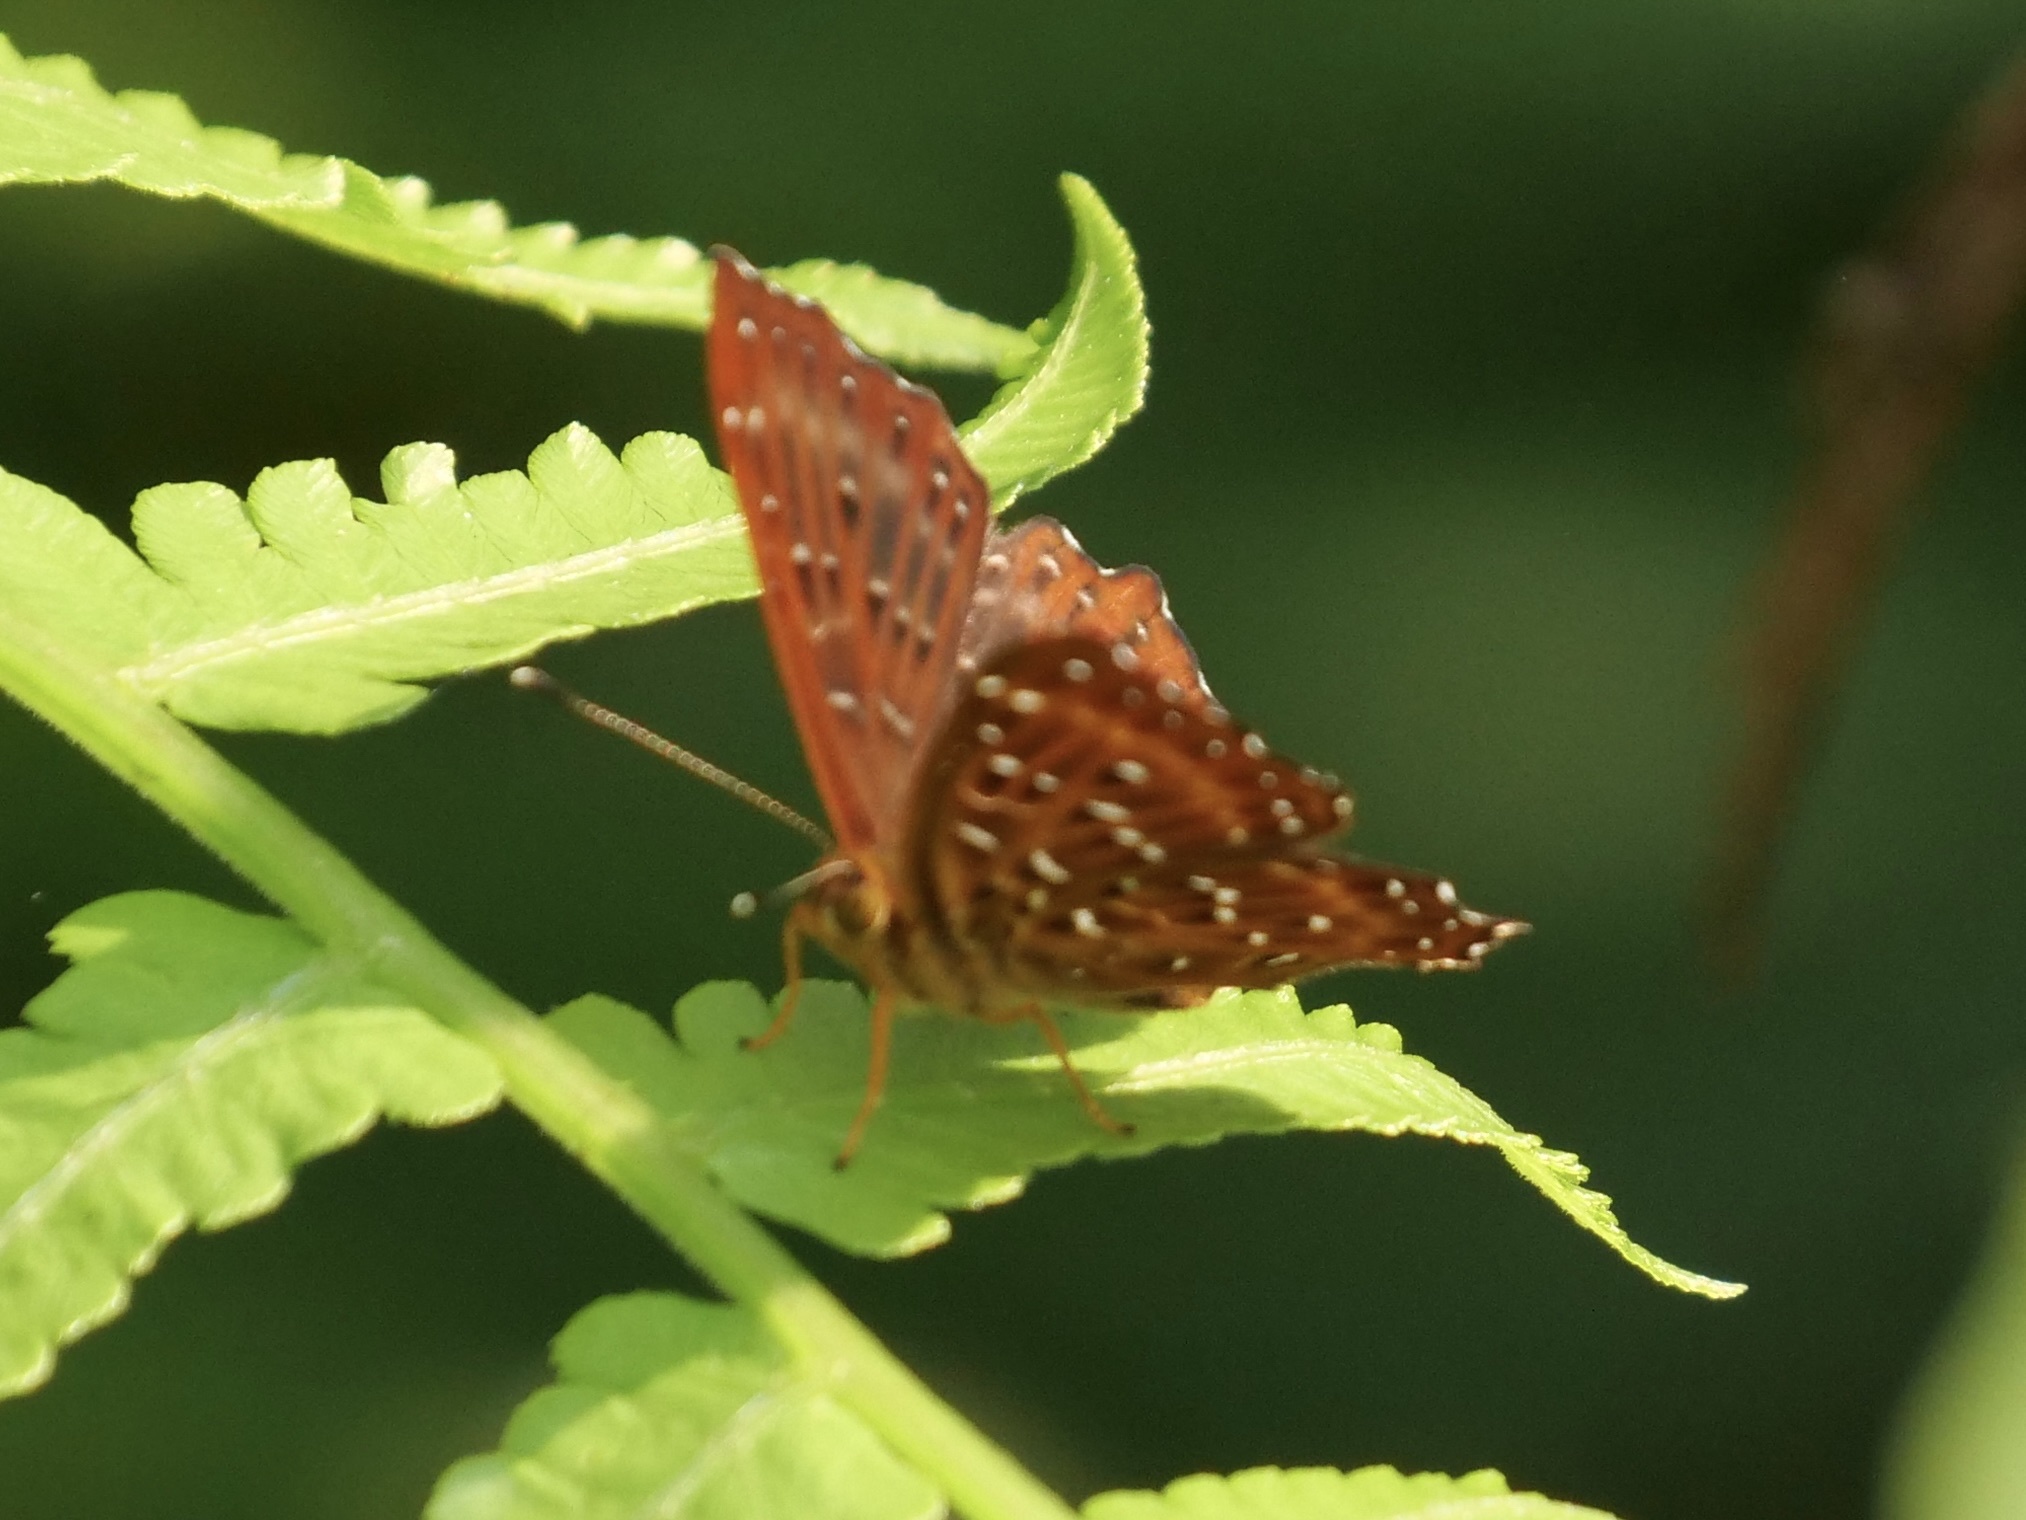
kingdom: Animalia
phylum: Arthropoda
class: Insecta
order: Lepidoptera
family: Riodinidae
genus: Zemeros
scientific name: Zemeros flegyas
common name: Punchinello
